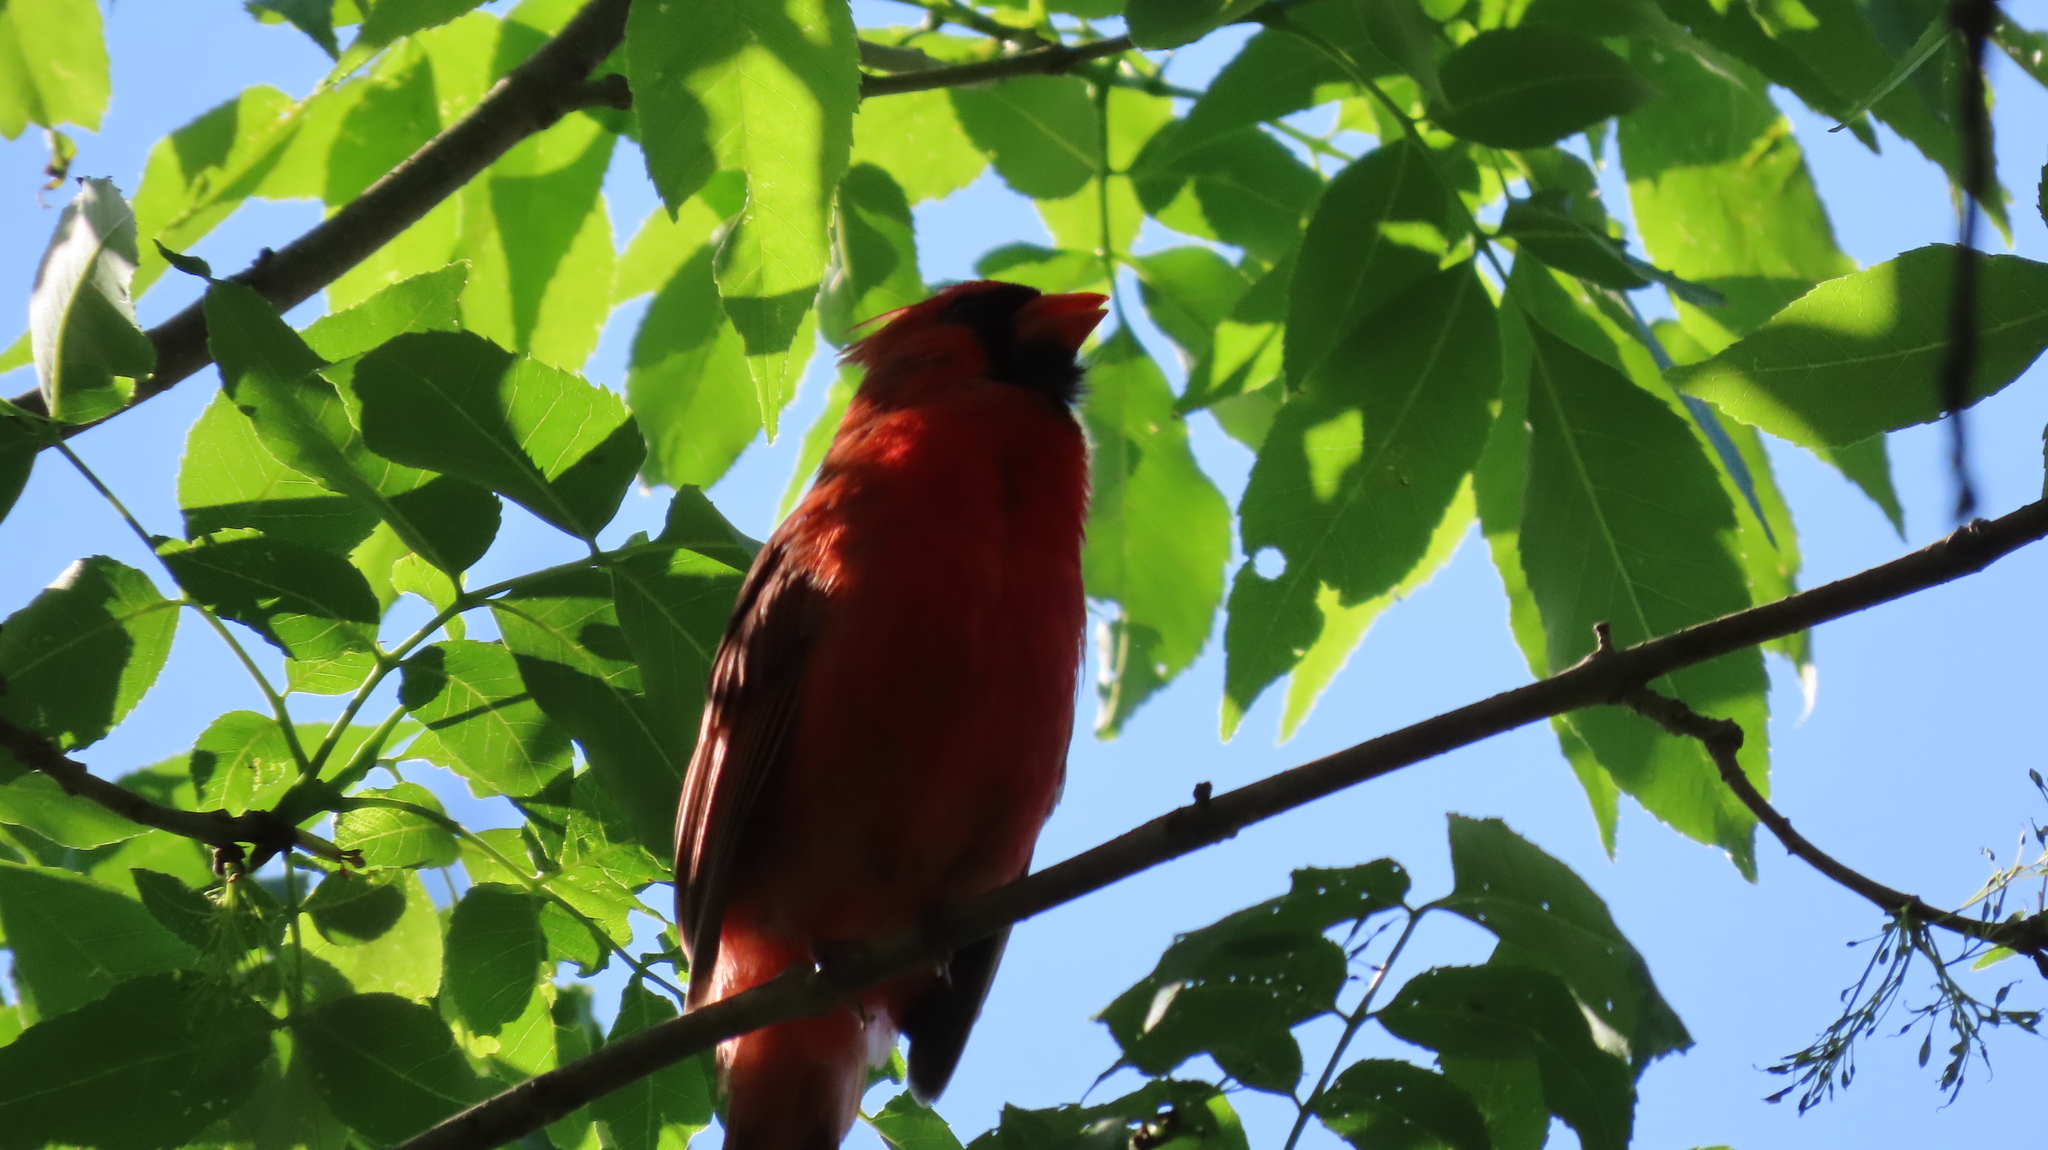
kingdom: Animalia
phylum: Chordata
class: Aves
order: Passeriformes
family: Cardinalidae
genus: Cardinalis
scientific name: Cardinalis cardinalis
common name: Northern cardinal
